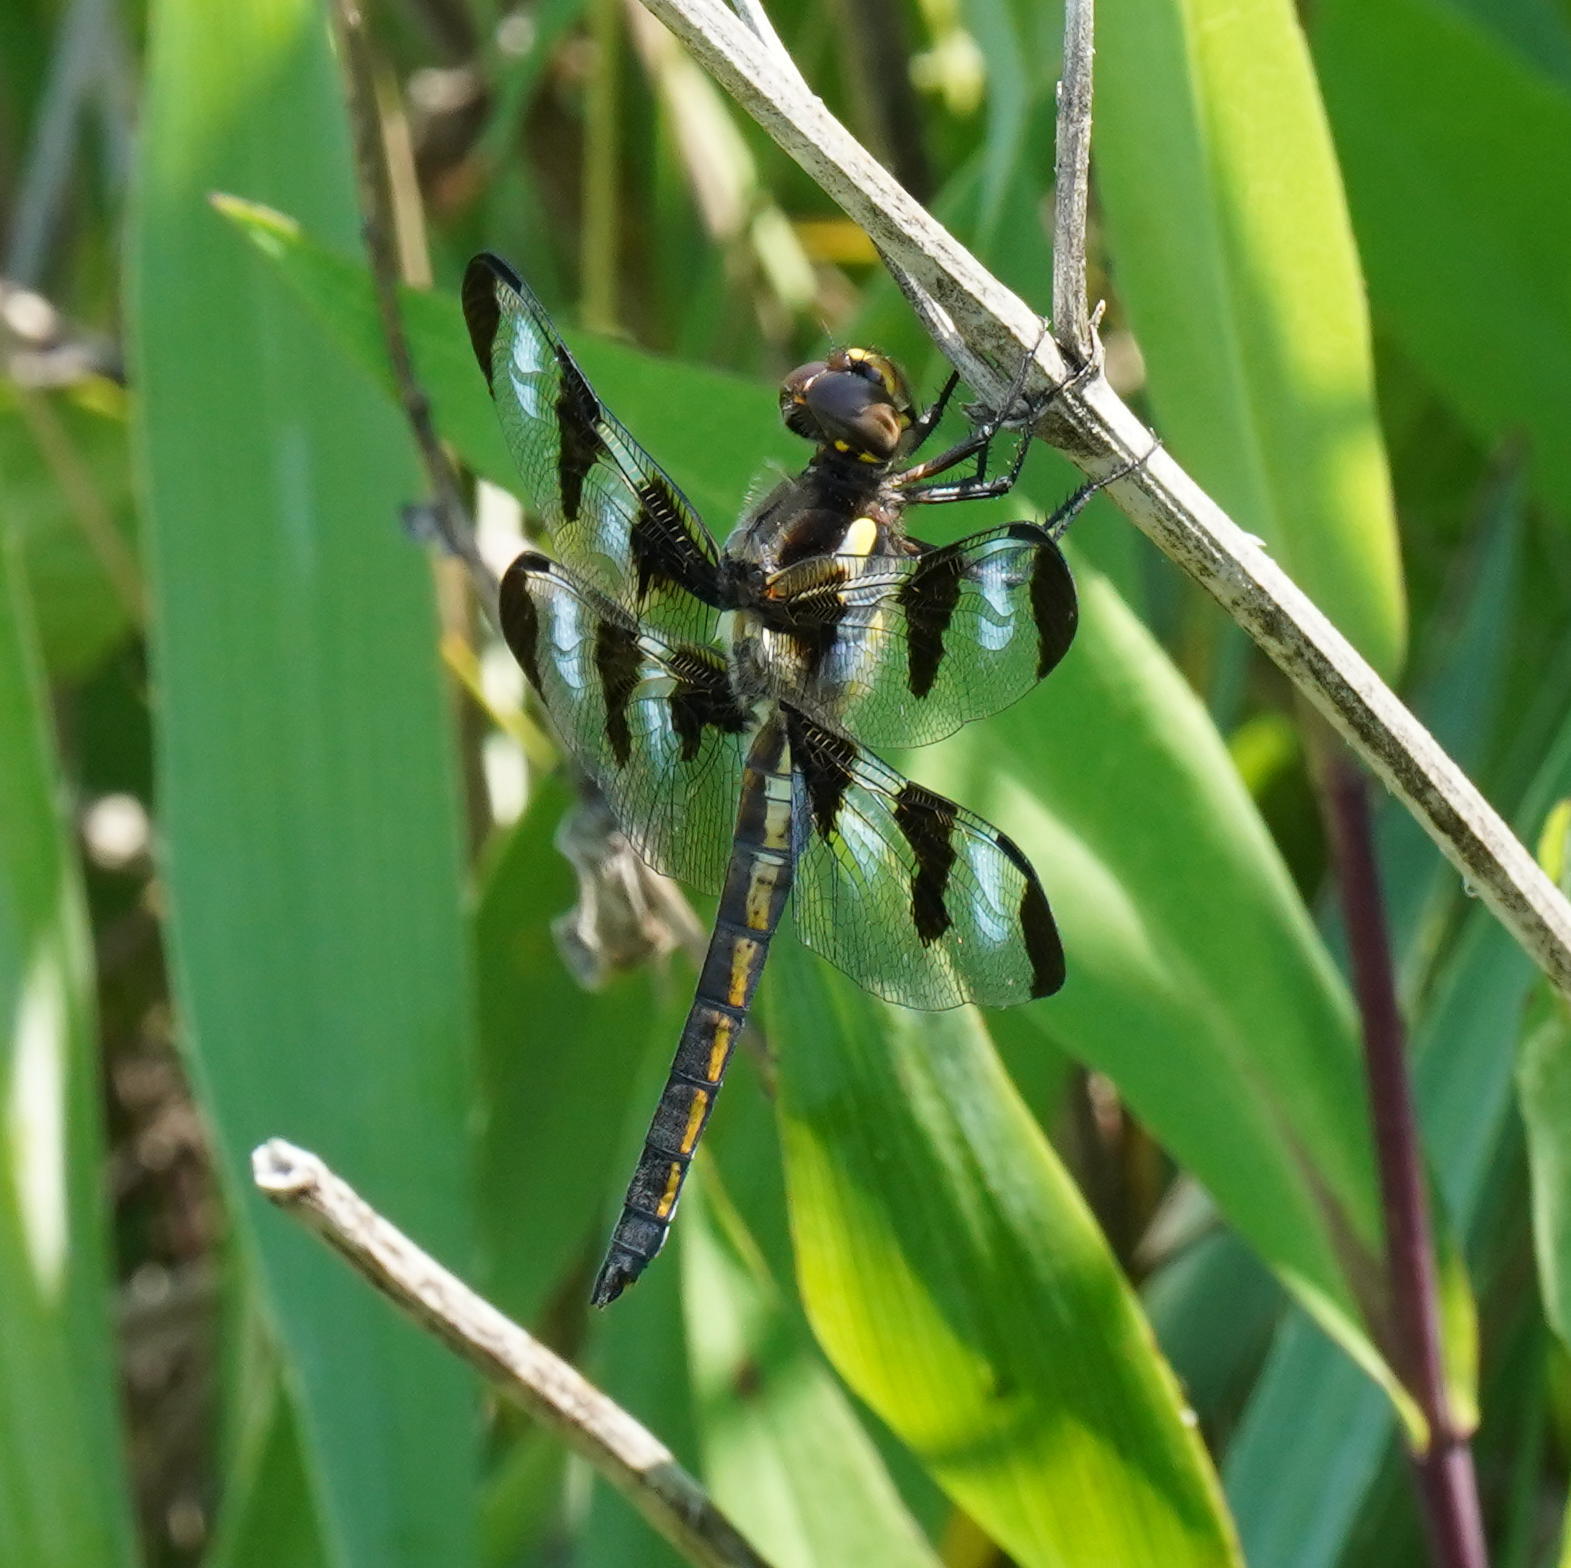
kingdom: Animalia
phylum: Arthropoda
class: Insecta
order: Odonata
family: Libellulidae
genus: Libellula
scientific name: Libellula pulchella
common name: Twelve-spotted skimmer
